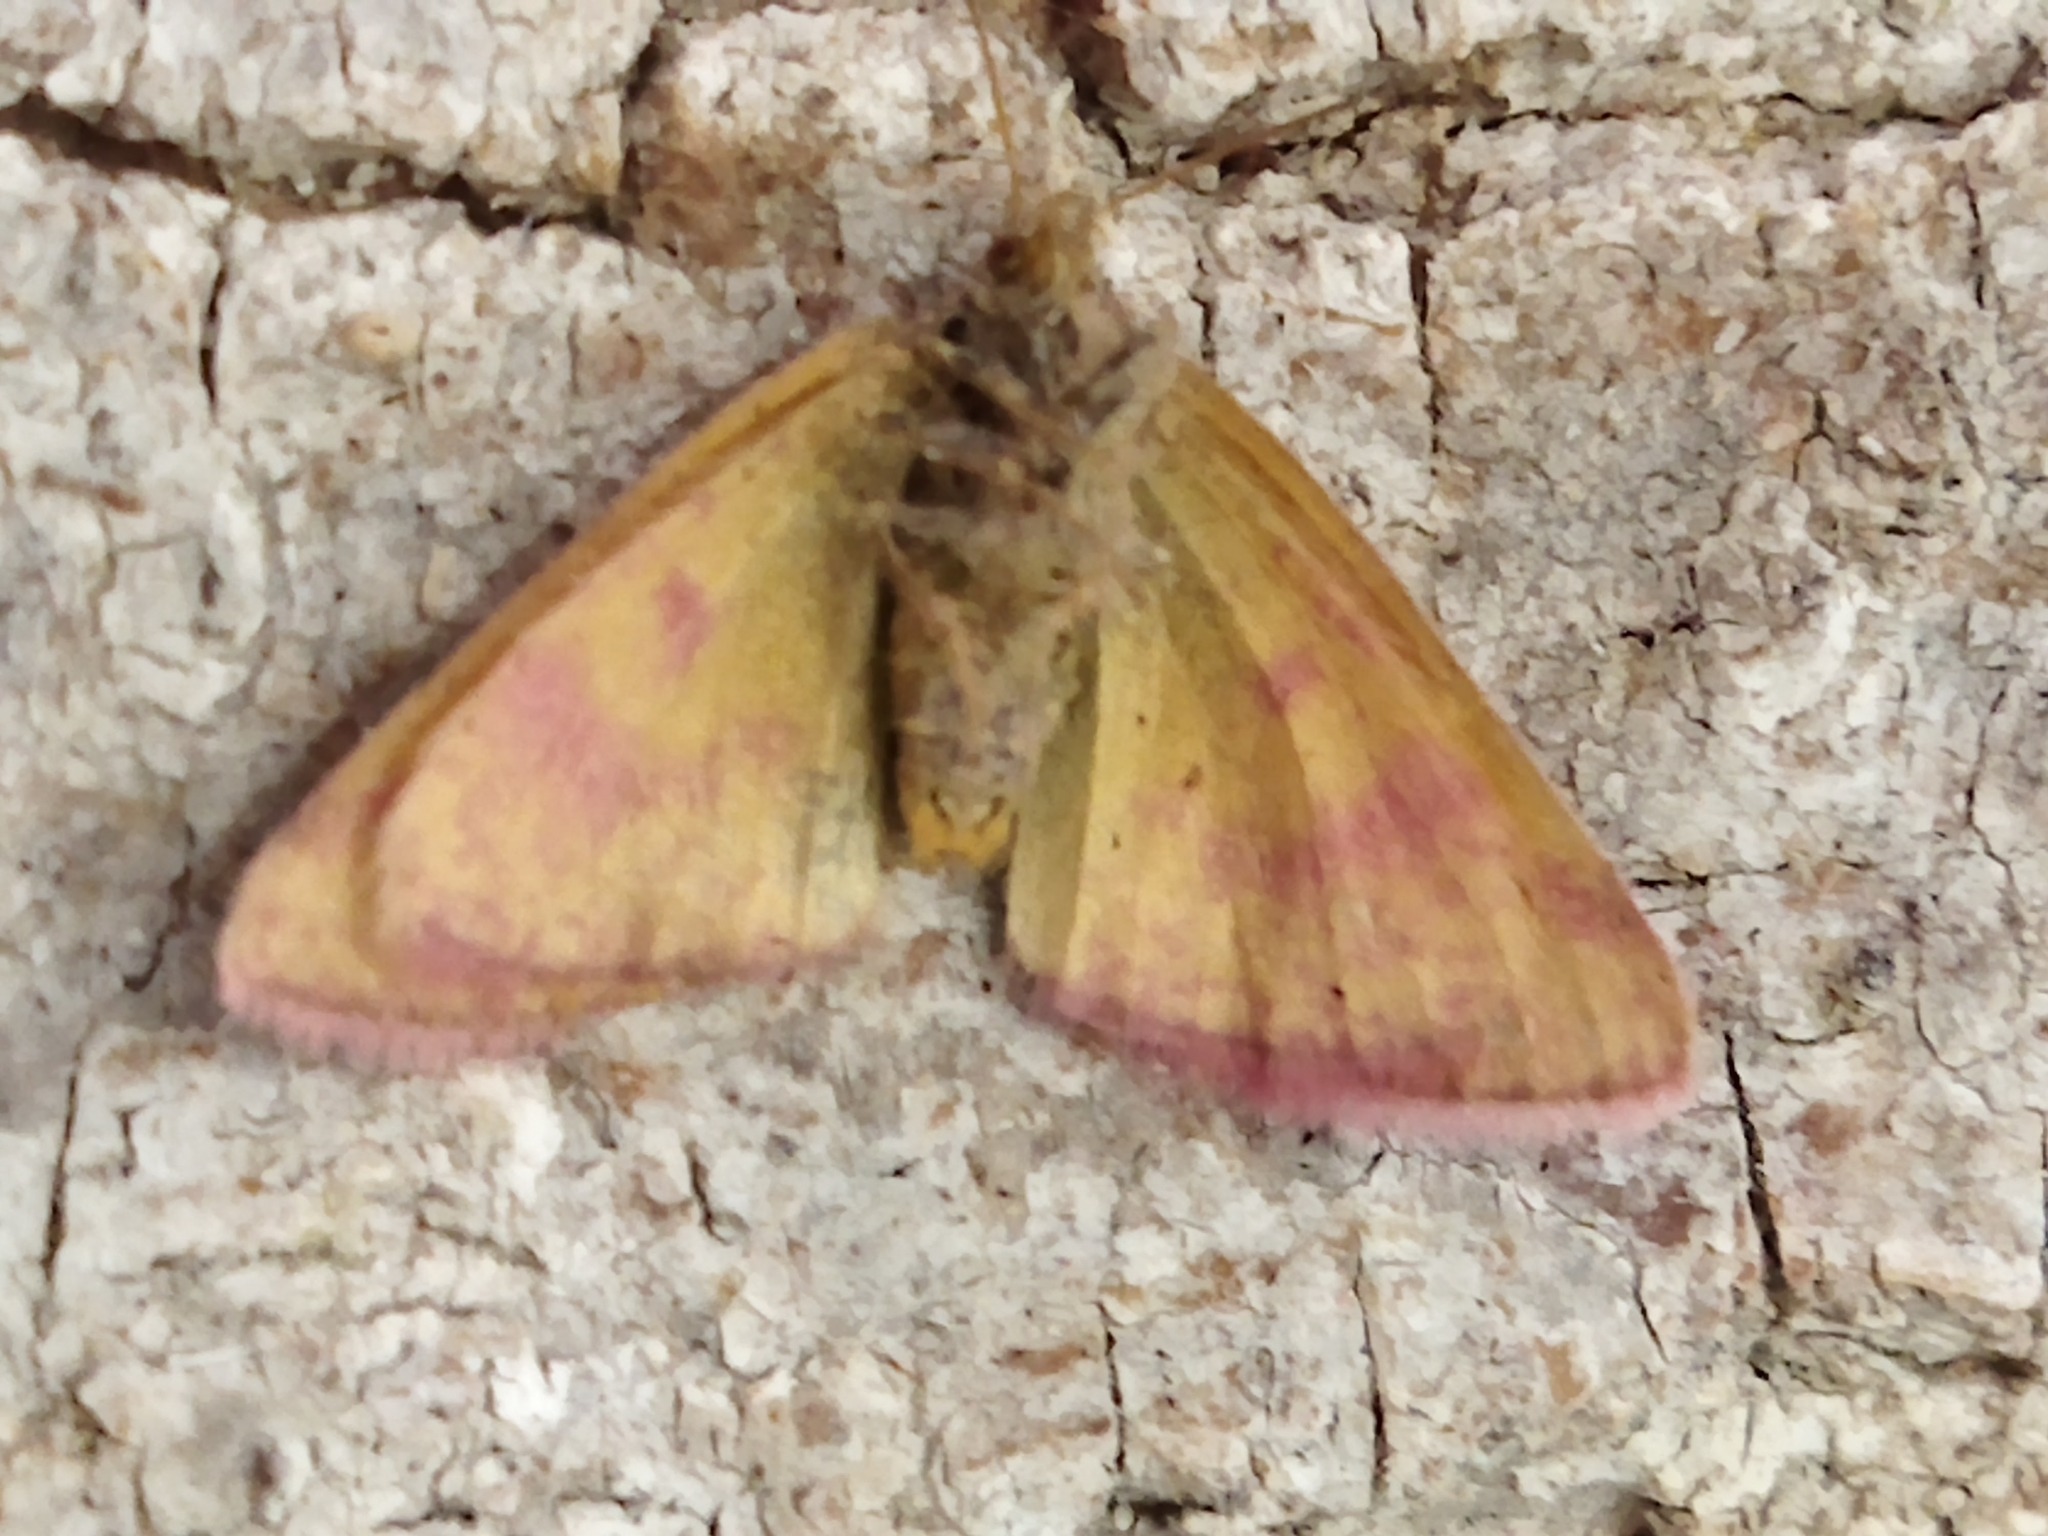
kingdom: Animalia
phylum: Arthropoda
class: Insecta
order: Lepidoptera
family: Geometridae
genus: Lythria
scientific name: Lythria purpuraria
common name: Purple-barred yellow
